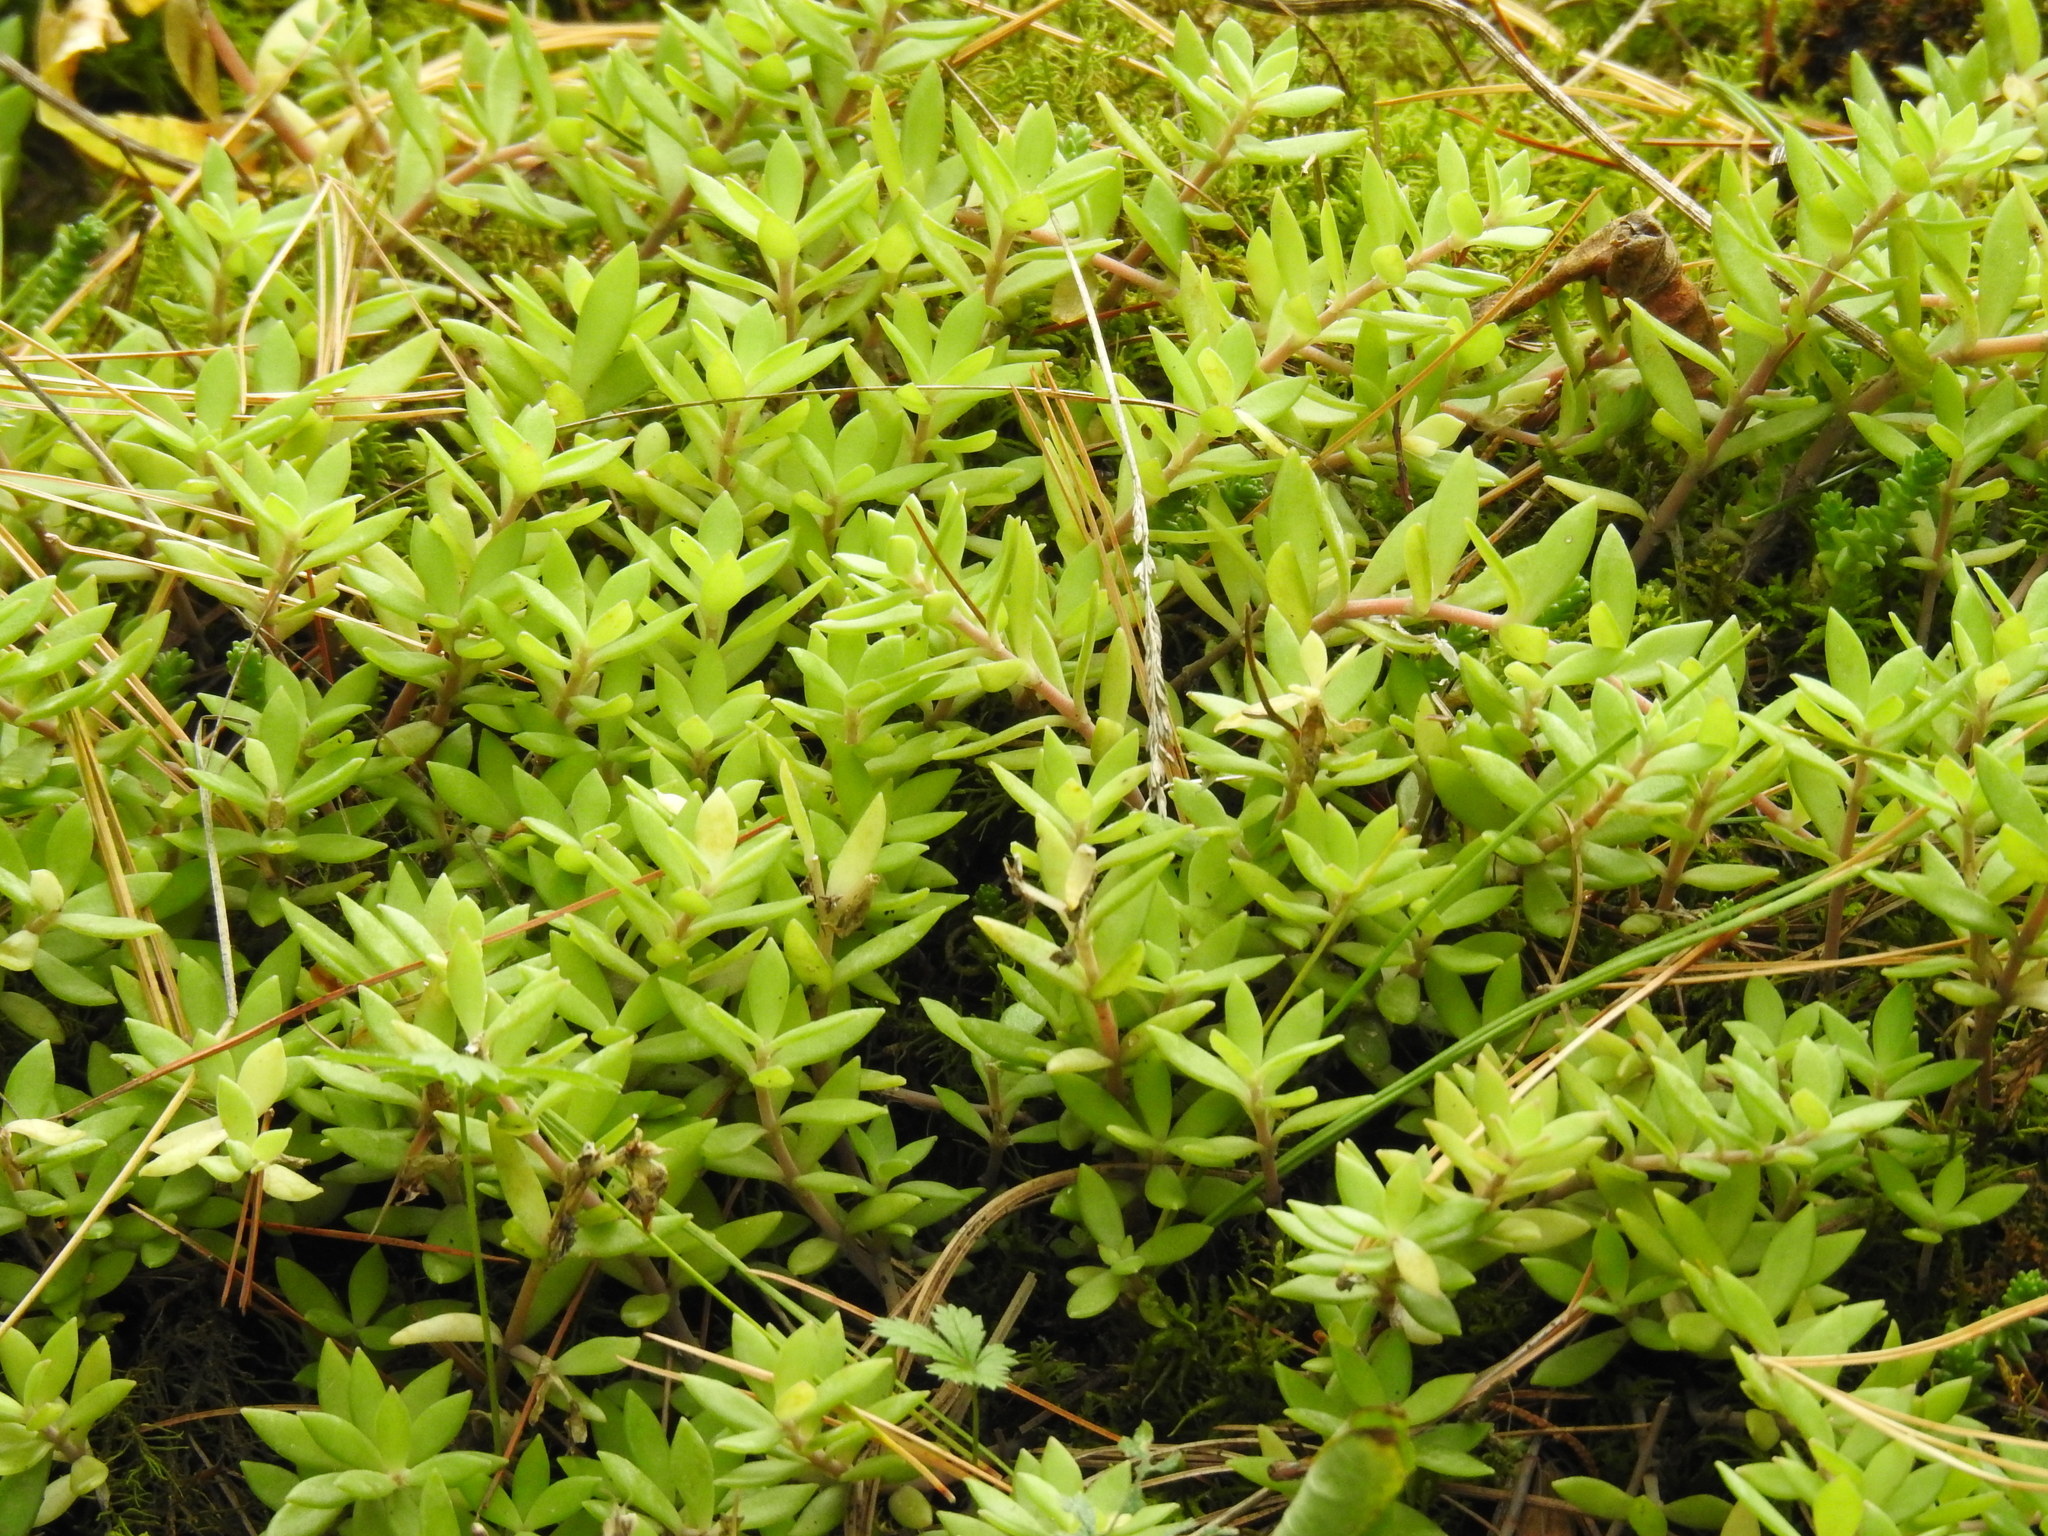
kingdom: Plantae
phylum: Tracheophyta
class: Magnoliopsida
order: Saxifragales
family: Crassulaceae
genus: Sedum
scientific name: Sedum sarmentosum
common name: Stringy stonecrop
